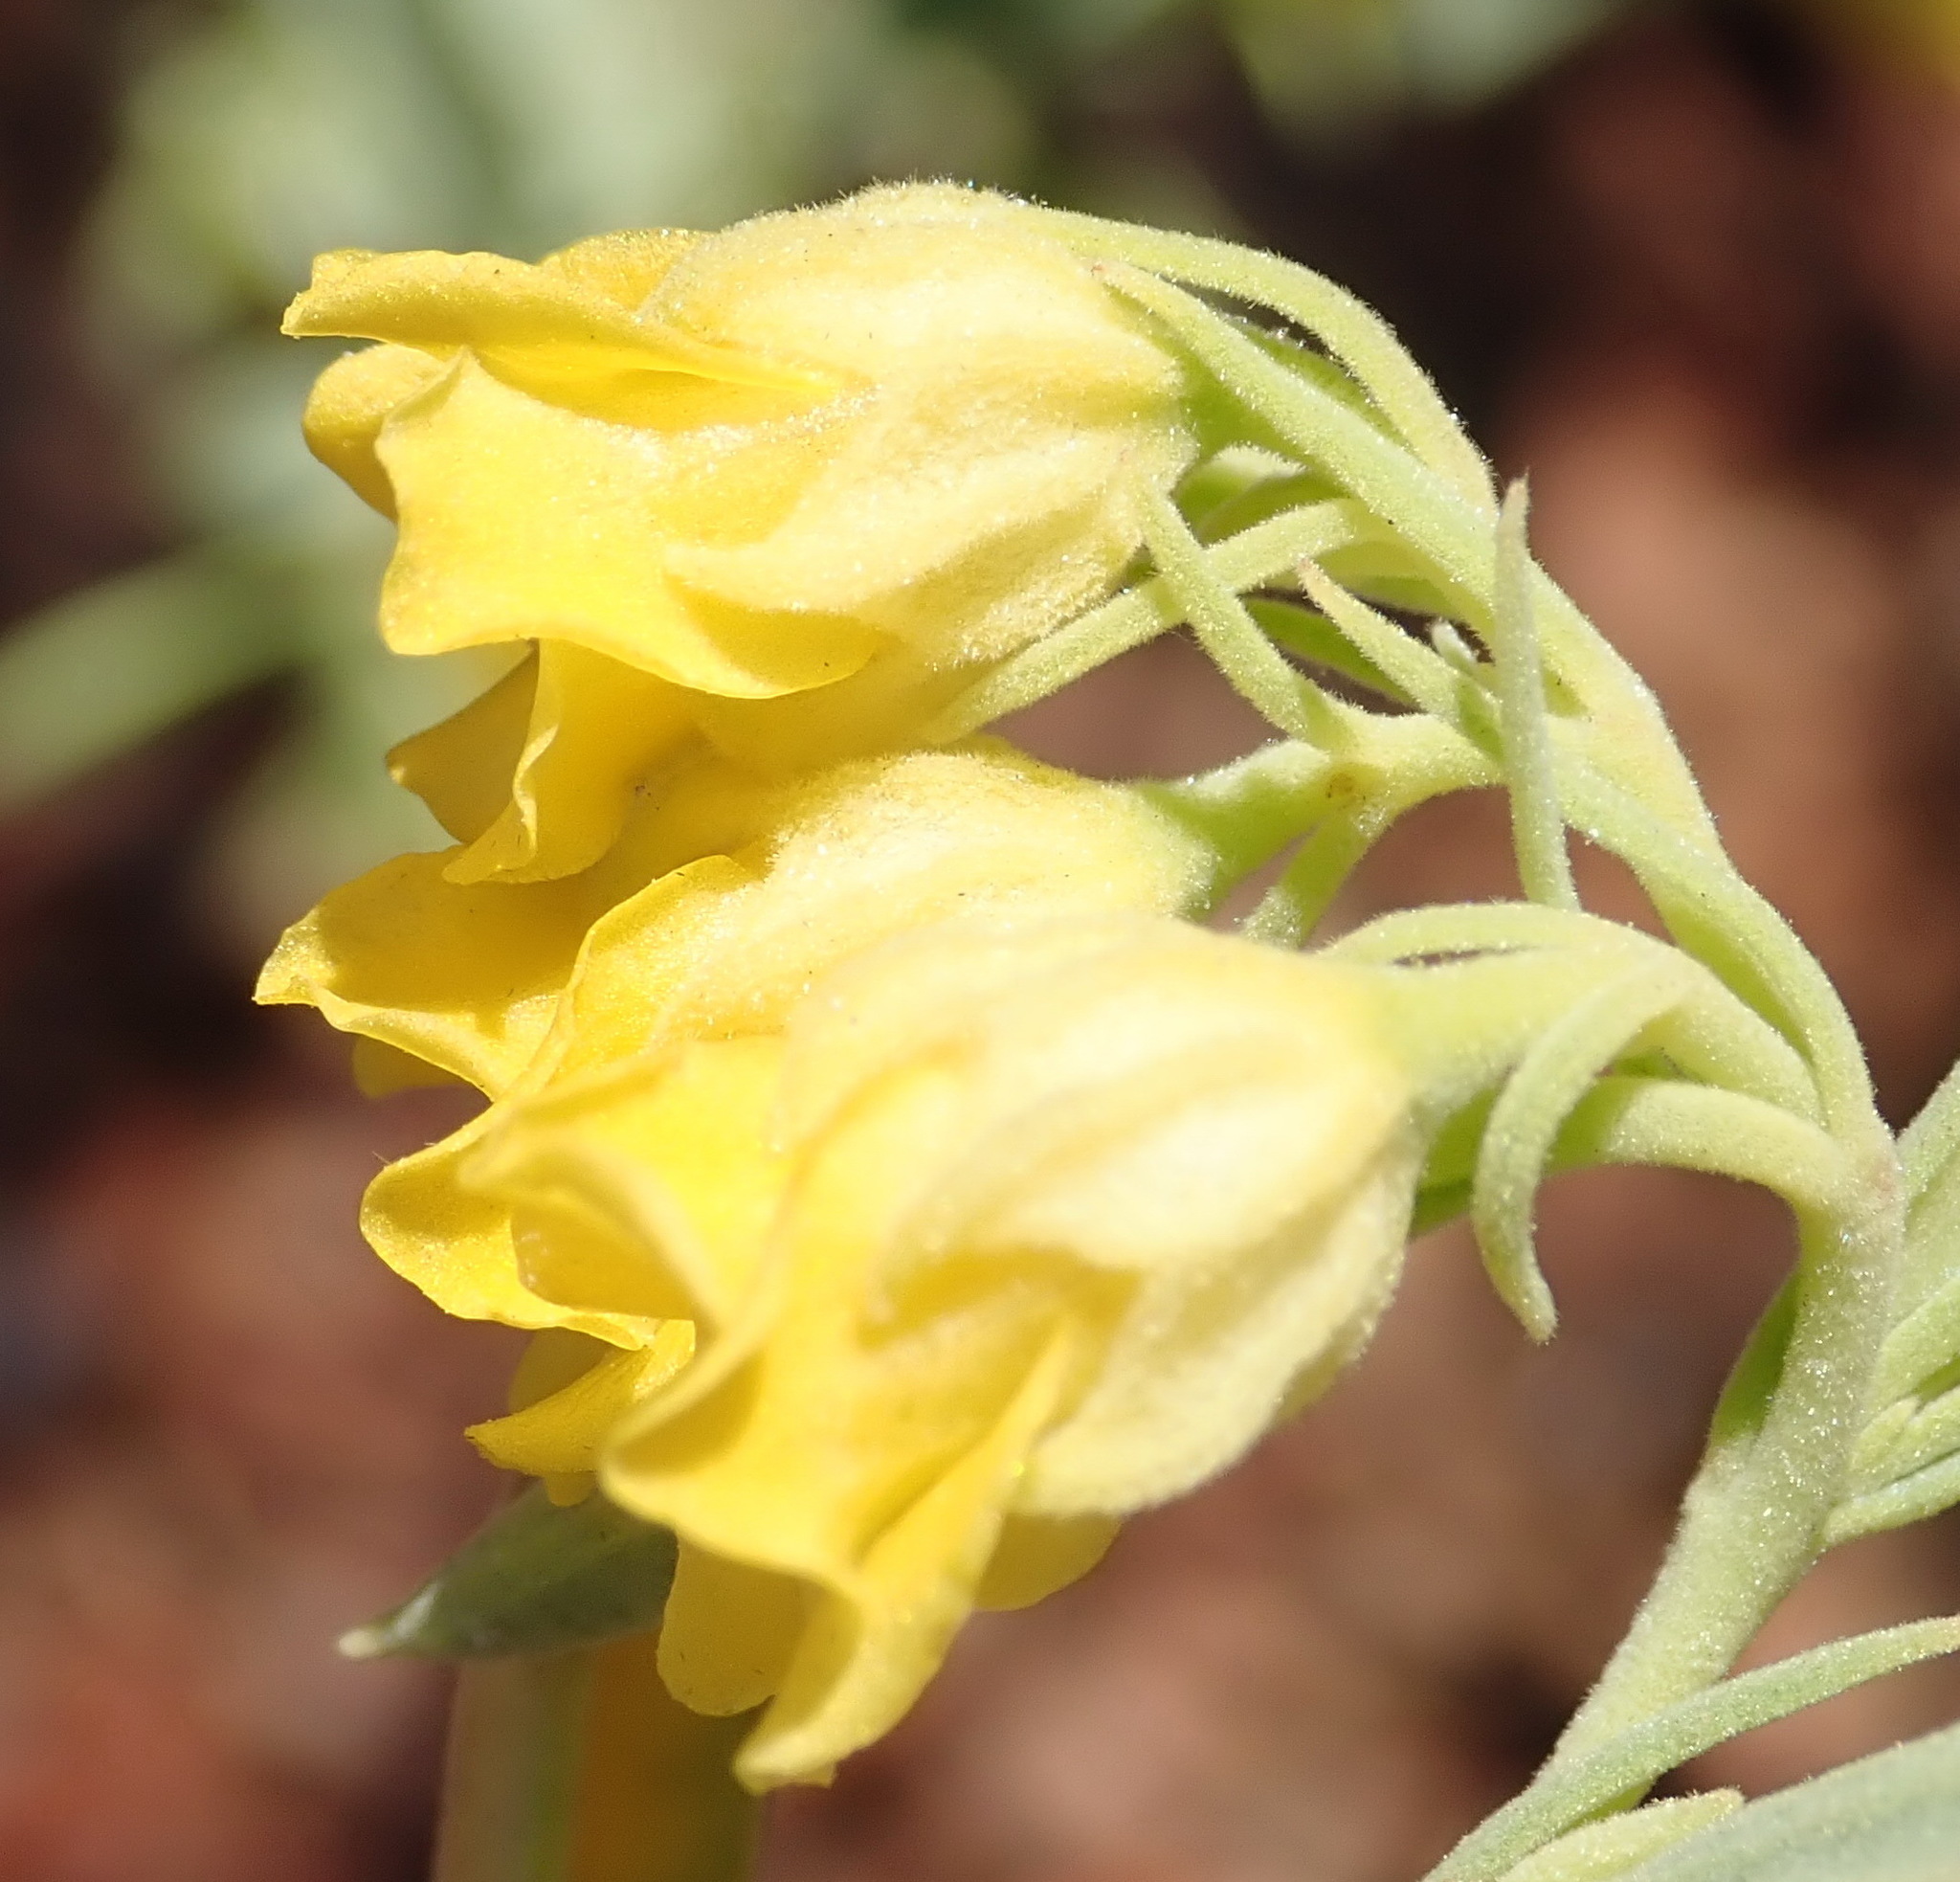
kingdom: Plantae
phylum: Tracheophyta
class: Magnoliopsida
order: Malvales
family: Malvaceae
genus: Hermannia
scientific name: Hermannia velutina
